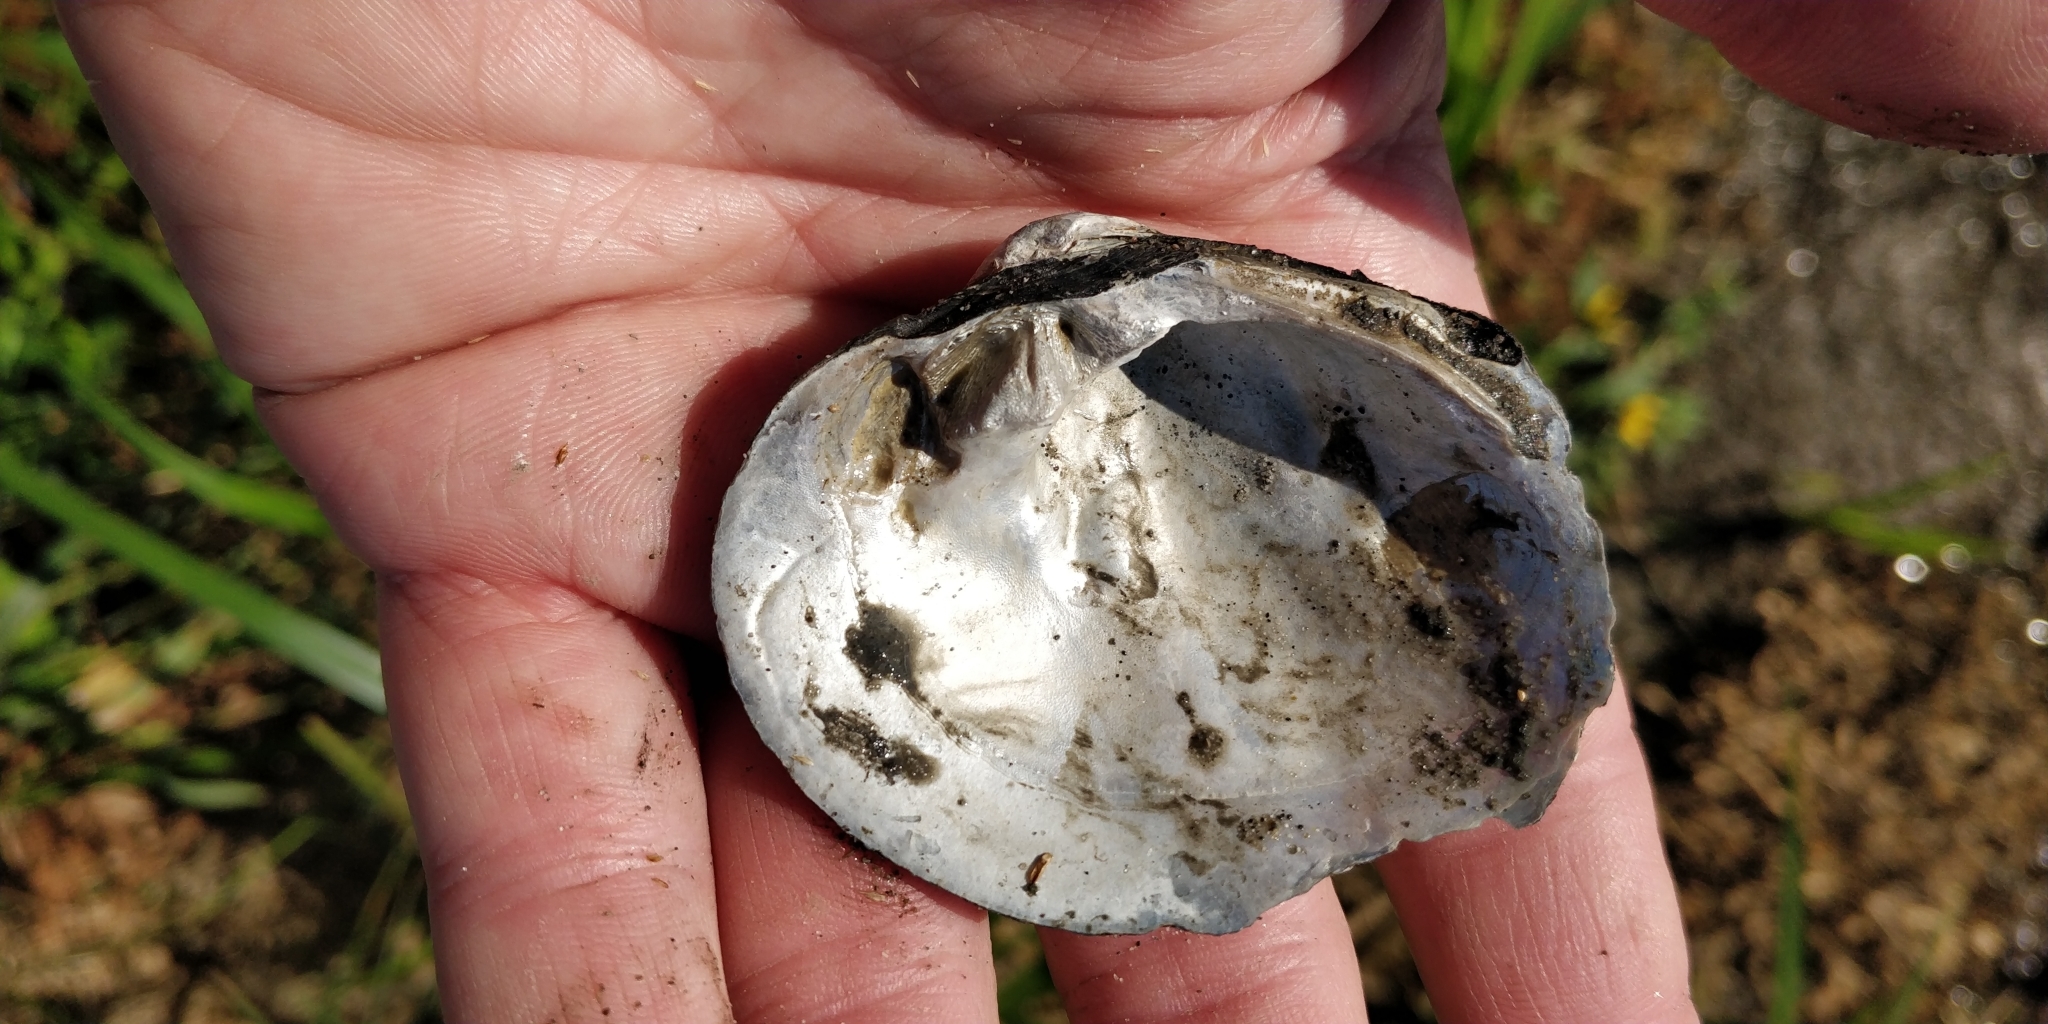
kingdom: Animalia
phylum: Mollusca
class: Bivalvia
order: Unionida
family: Unionidae
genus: Cyclonaias
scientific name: Cyclonaias pustulosa
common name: Pimpleback
